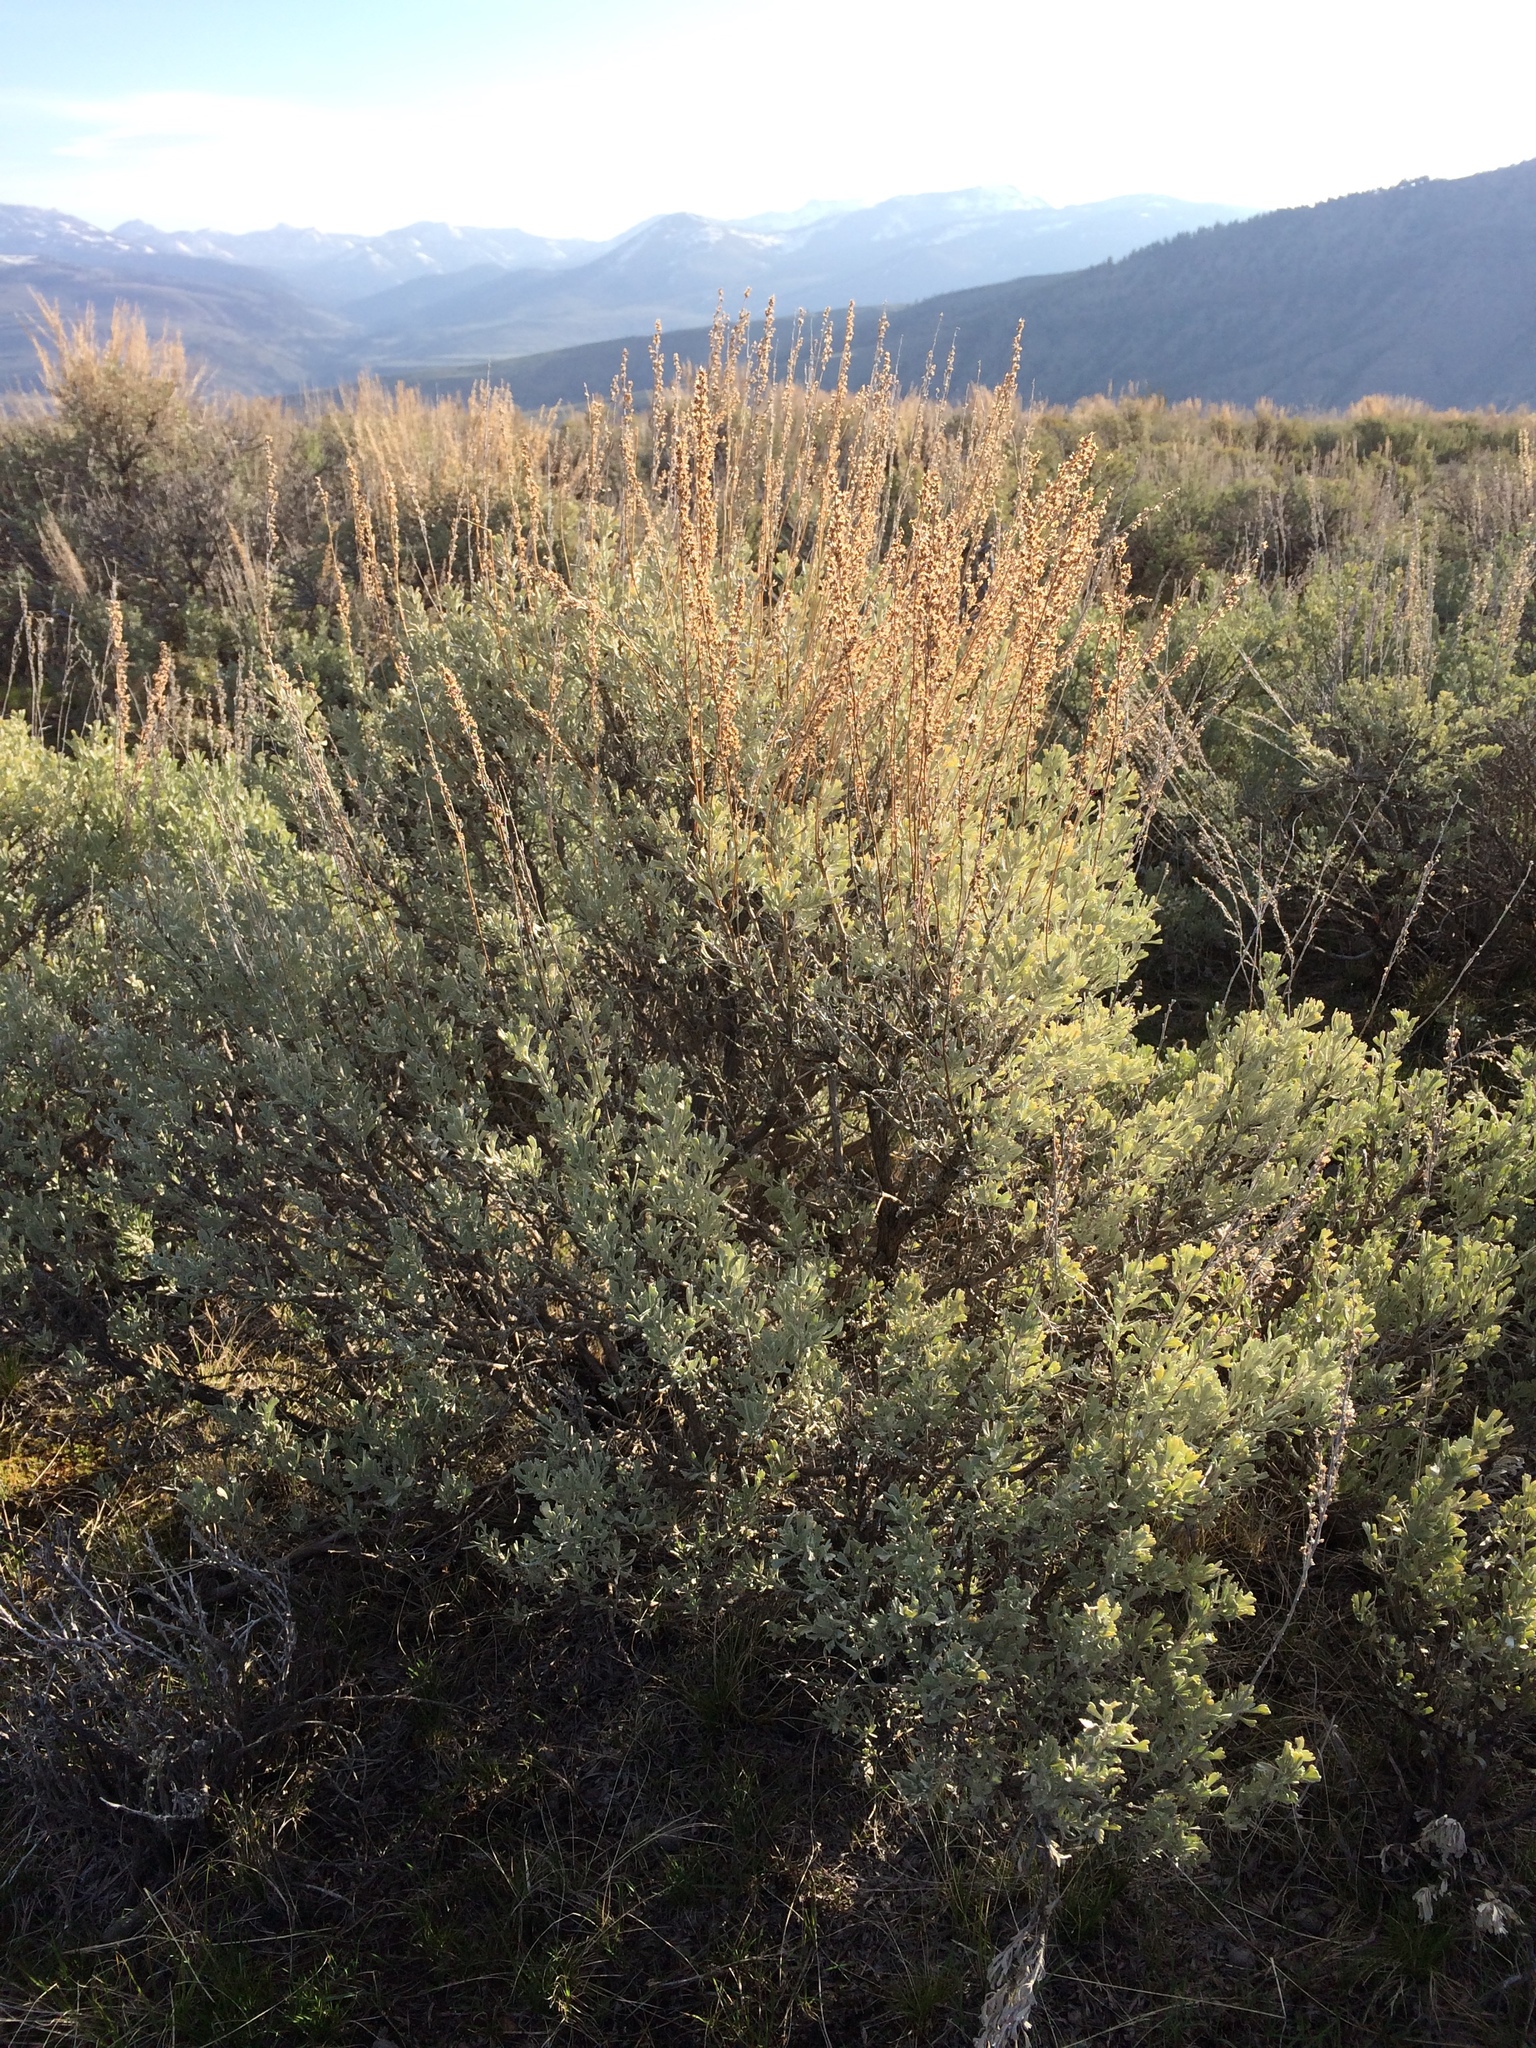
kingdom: Plantae
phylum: Tracheophyta
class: Magnoliopsida
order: Asterales
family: Asteraceae
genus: Artemisia
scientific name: Artemisia tridentata
